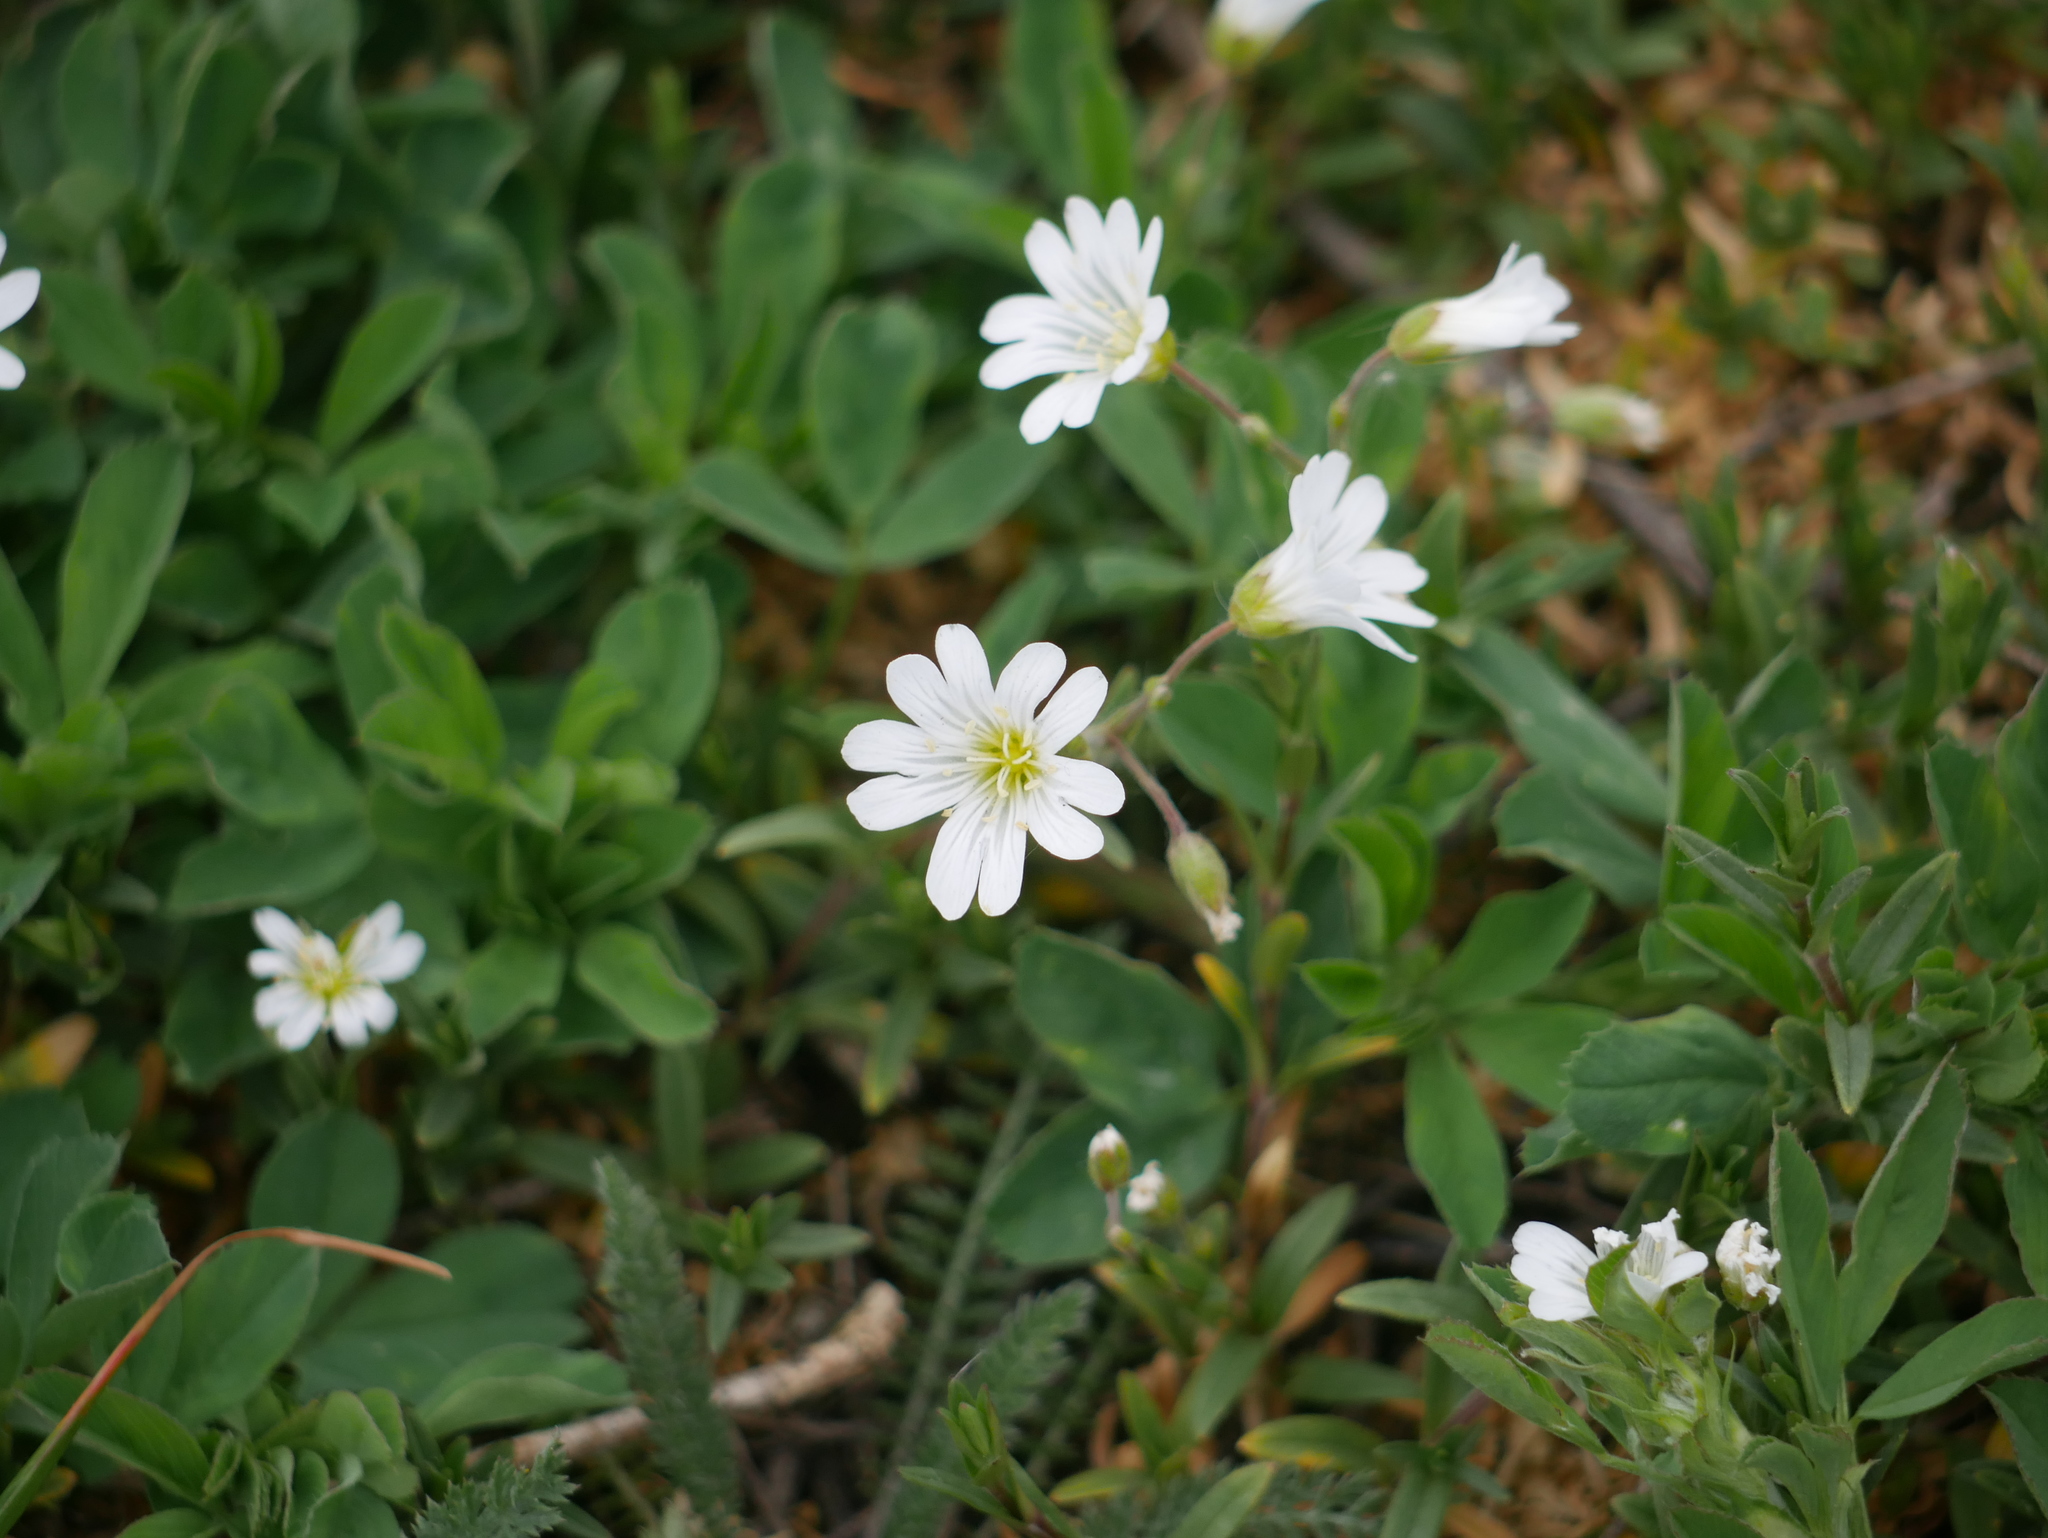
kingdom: Plantae
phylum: Tracheophyta
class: Magnoliopsida
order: Caryophyllales
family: Caryophyllaceae
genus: Cerastium
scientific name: Cerastium arvense
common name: Field mouse-ear
